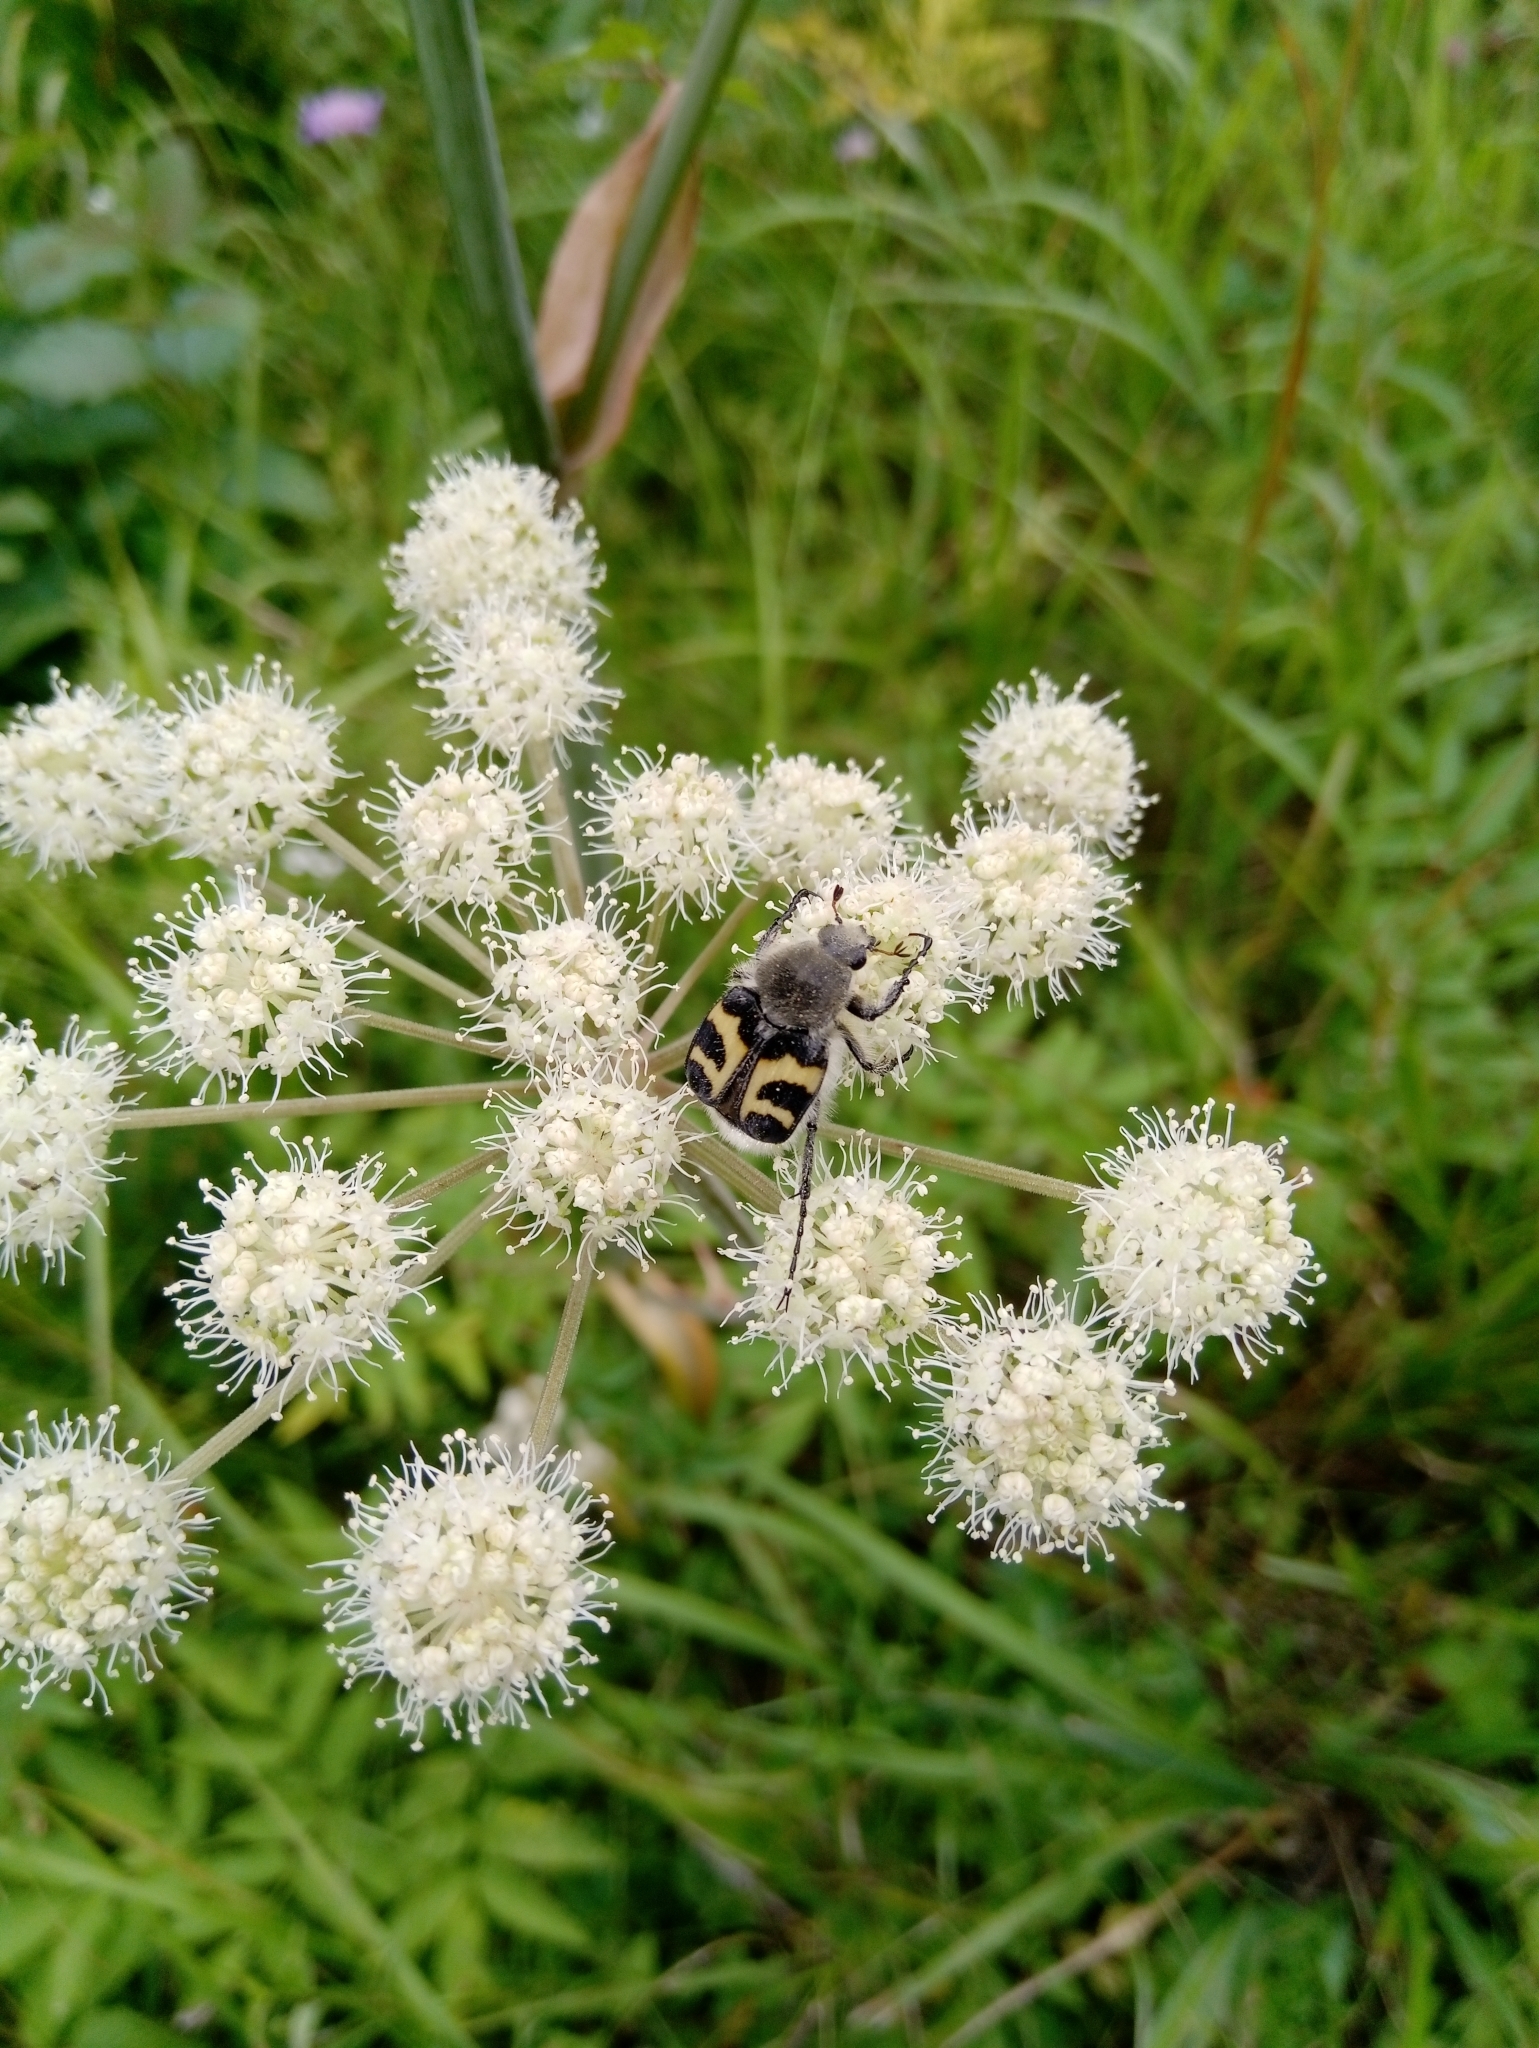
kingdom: Animalia
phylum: Arthropoda
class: Insecta
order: Coleoptera
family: Scarabaeidae
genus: Trichius
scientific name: Trichius fasciatus
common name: Bee beetle
